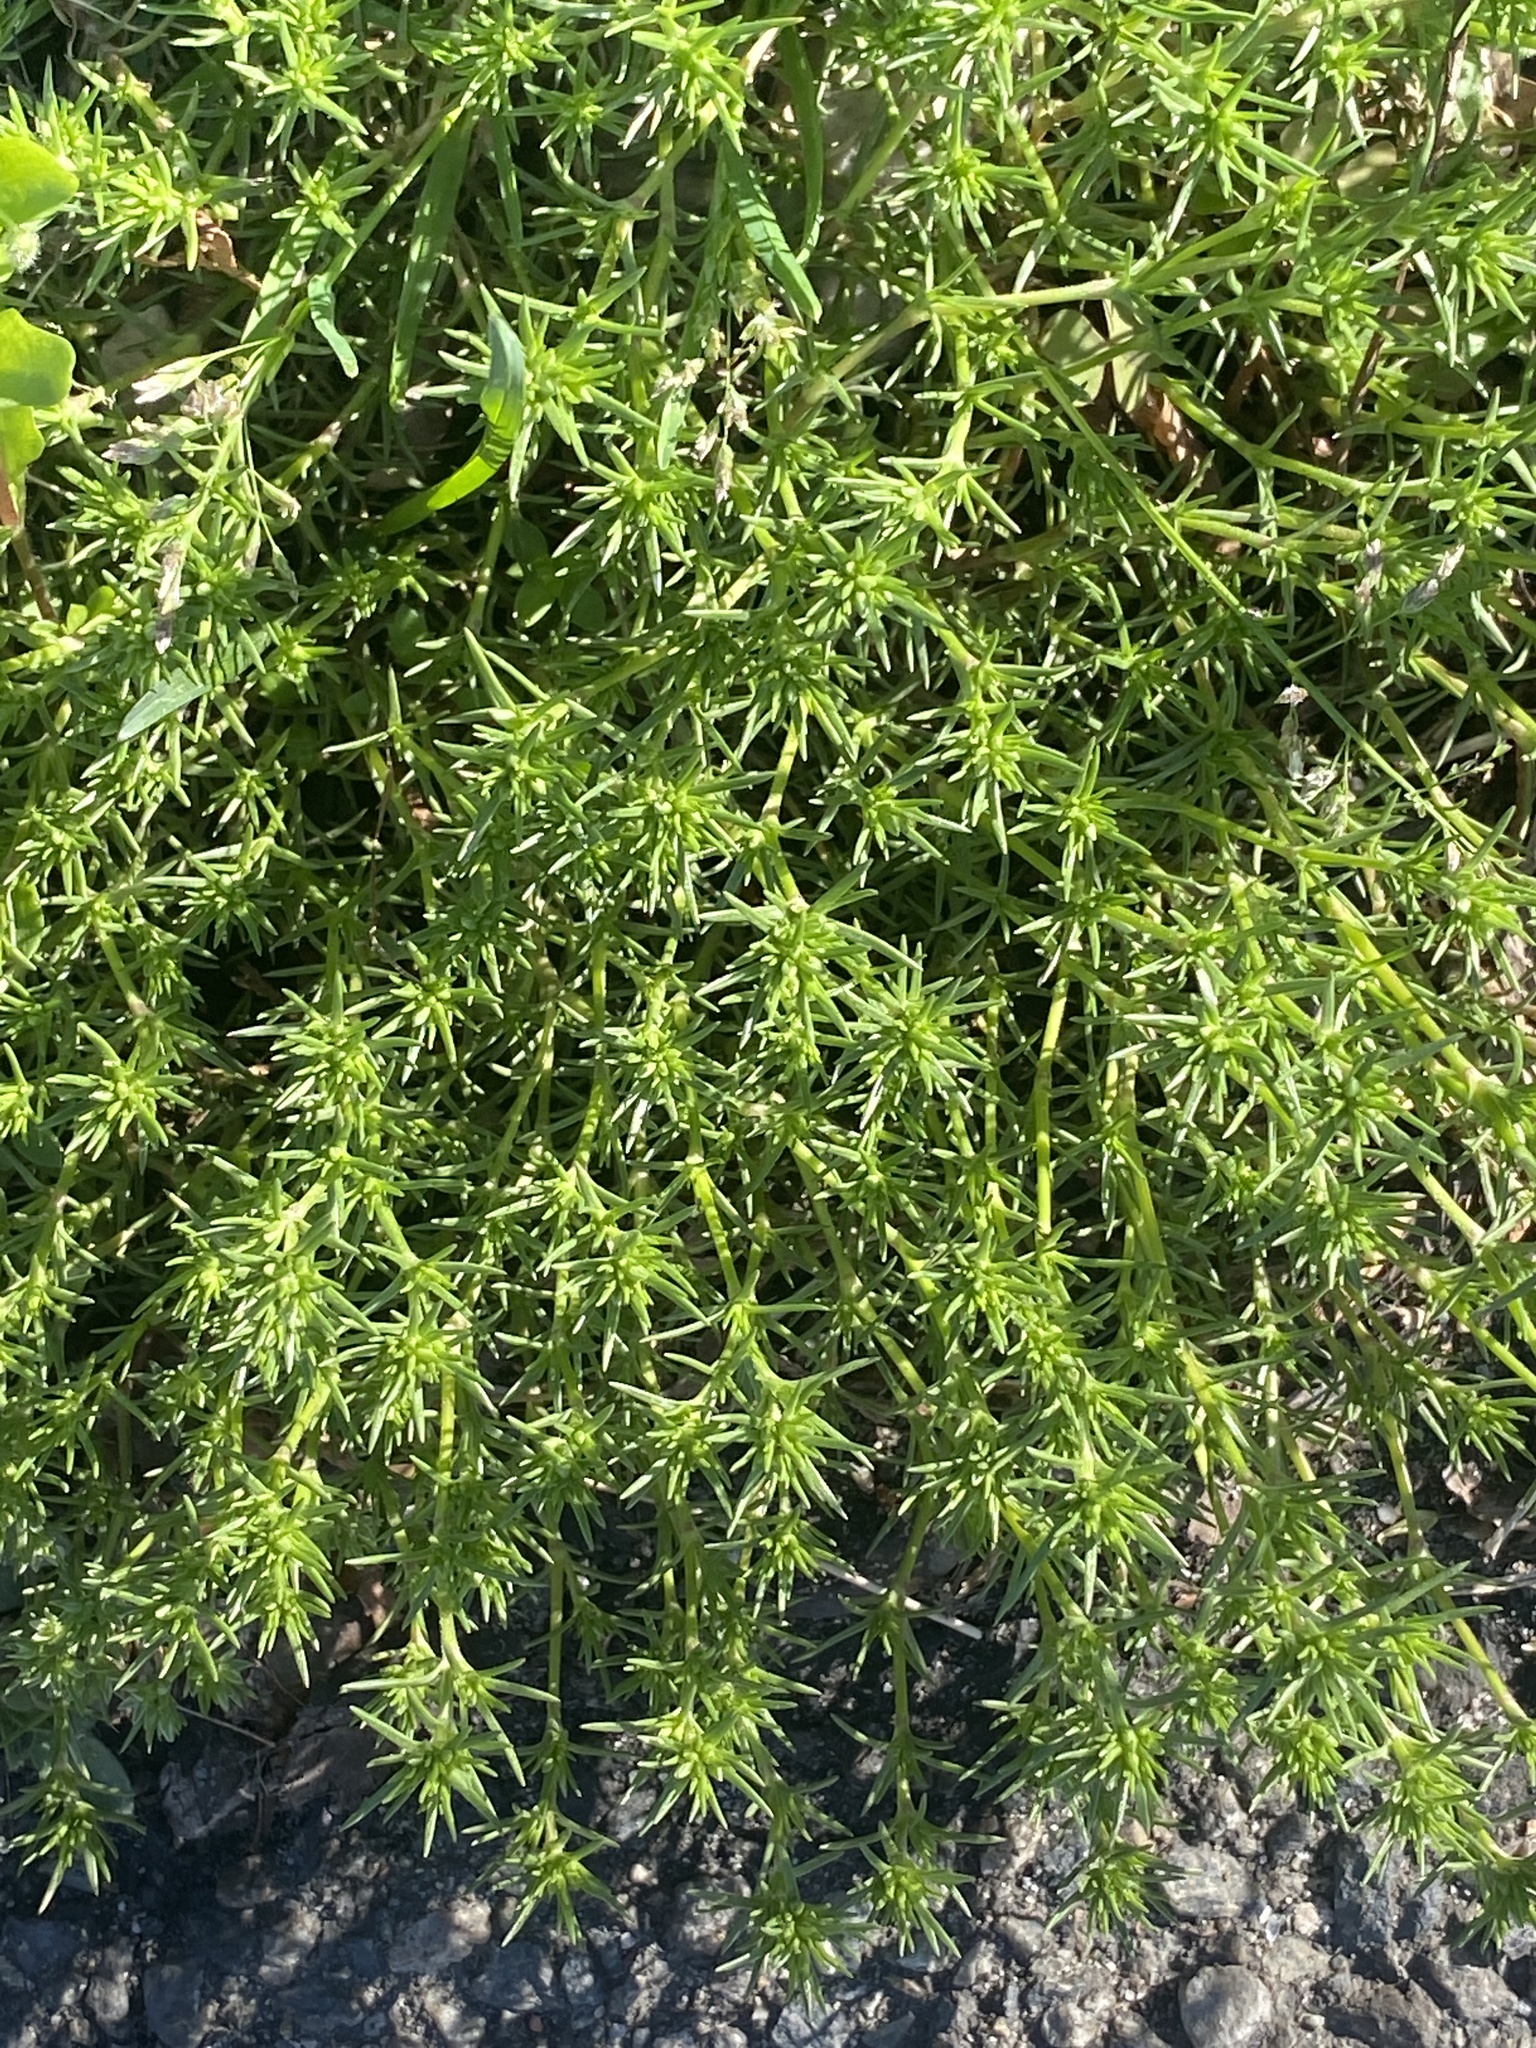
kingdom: Plantae
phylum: Tracheophyta
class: Magnoliopsida
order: Caryophyllales
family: Caryophyllaceae
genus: Scleranthus
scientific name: Scleranthus annuus
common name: Annual knawel
